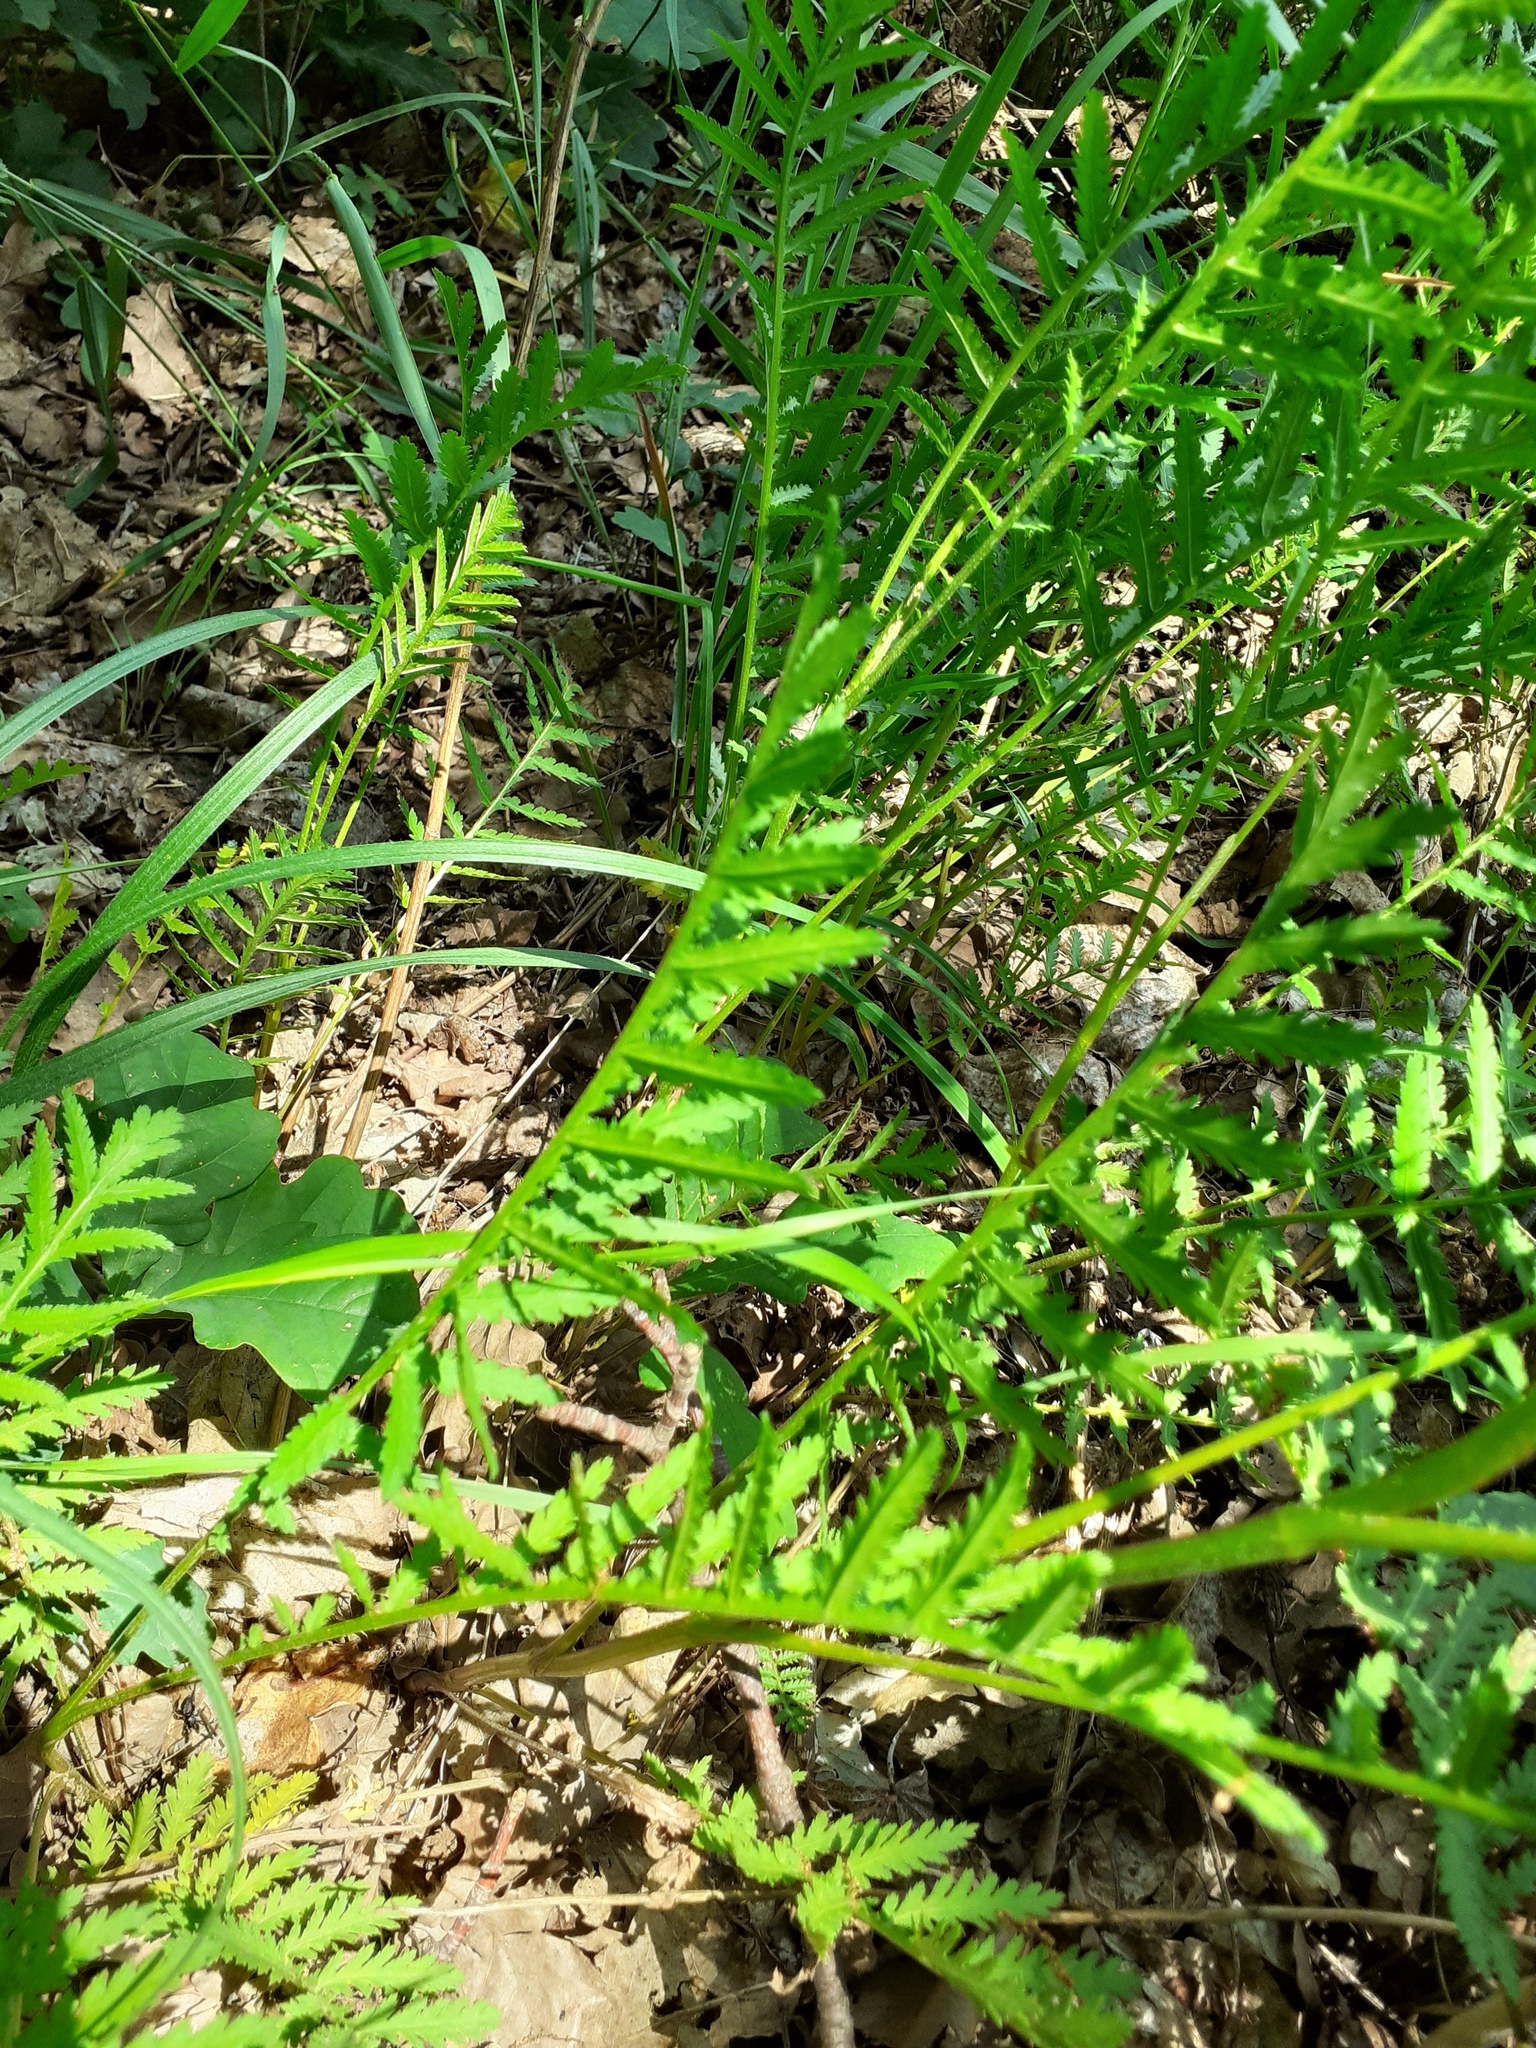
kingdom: Plantae
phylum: Tracheophyta
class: Magnoliopsida
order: Asterales
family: Asteraceae
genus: Tanacetum
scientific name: Tanacetum vulgare
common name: Common tansy
